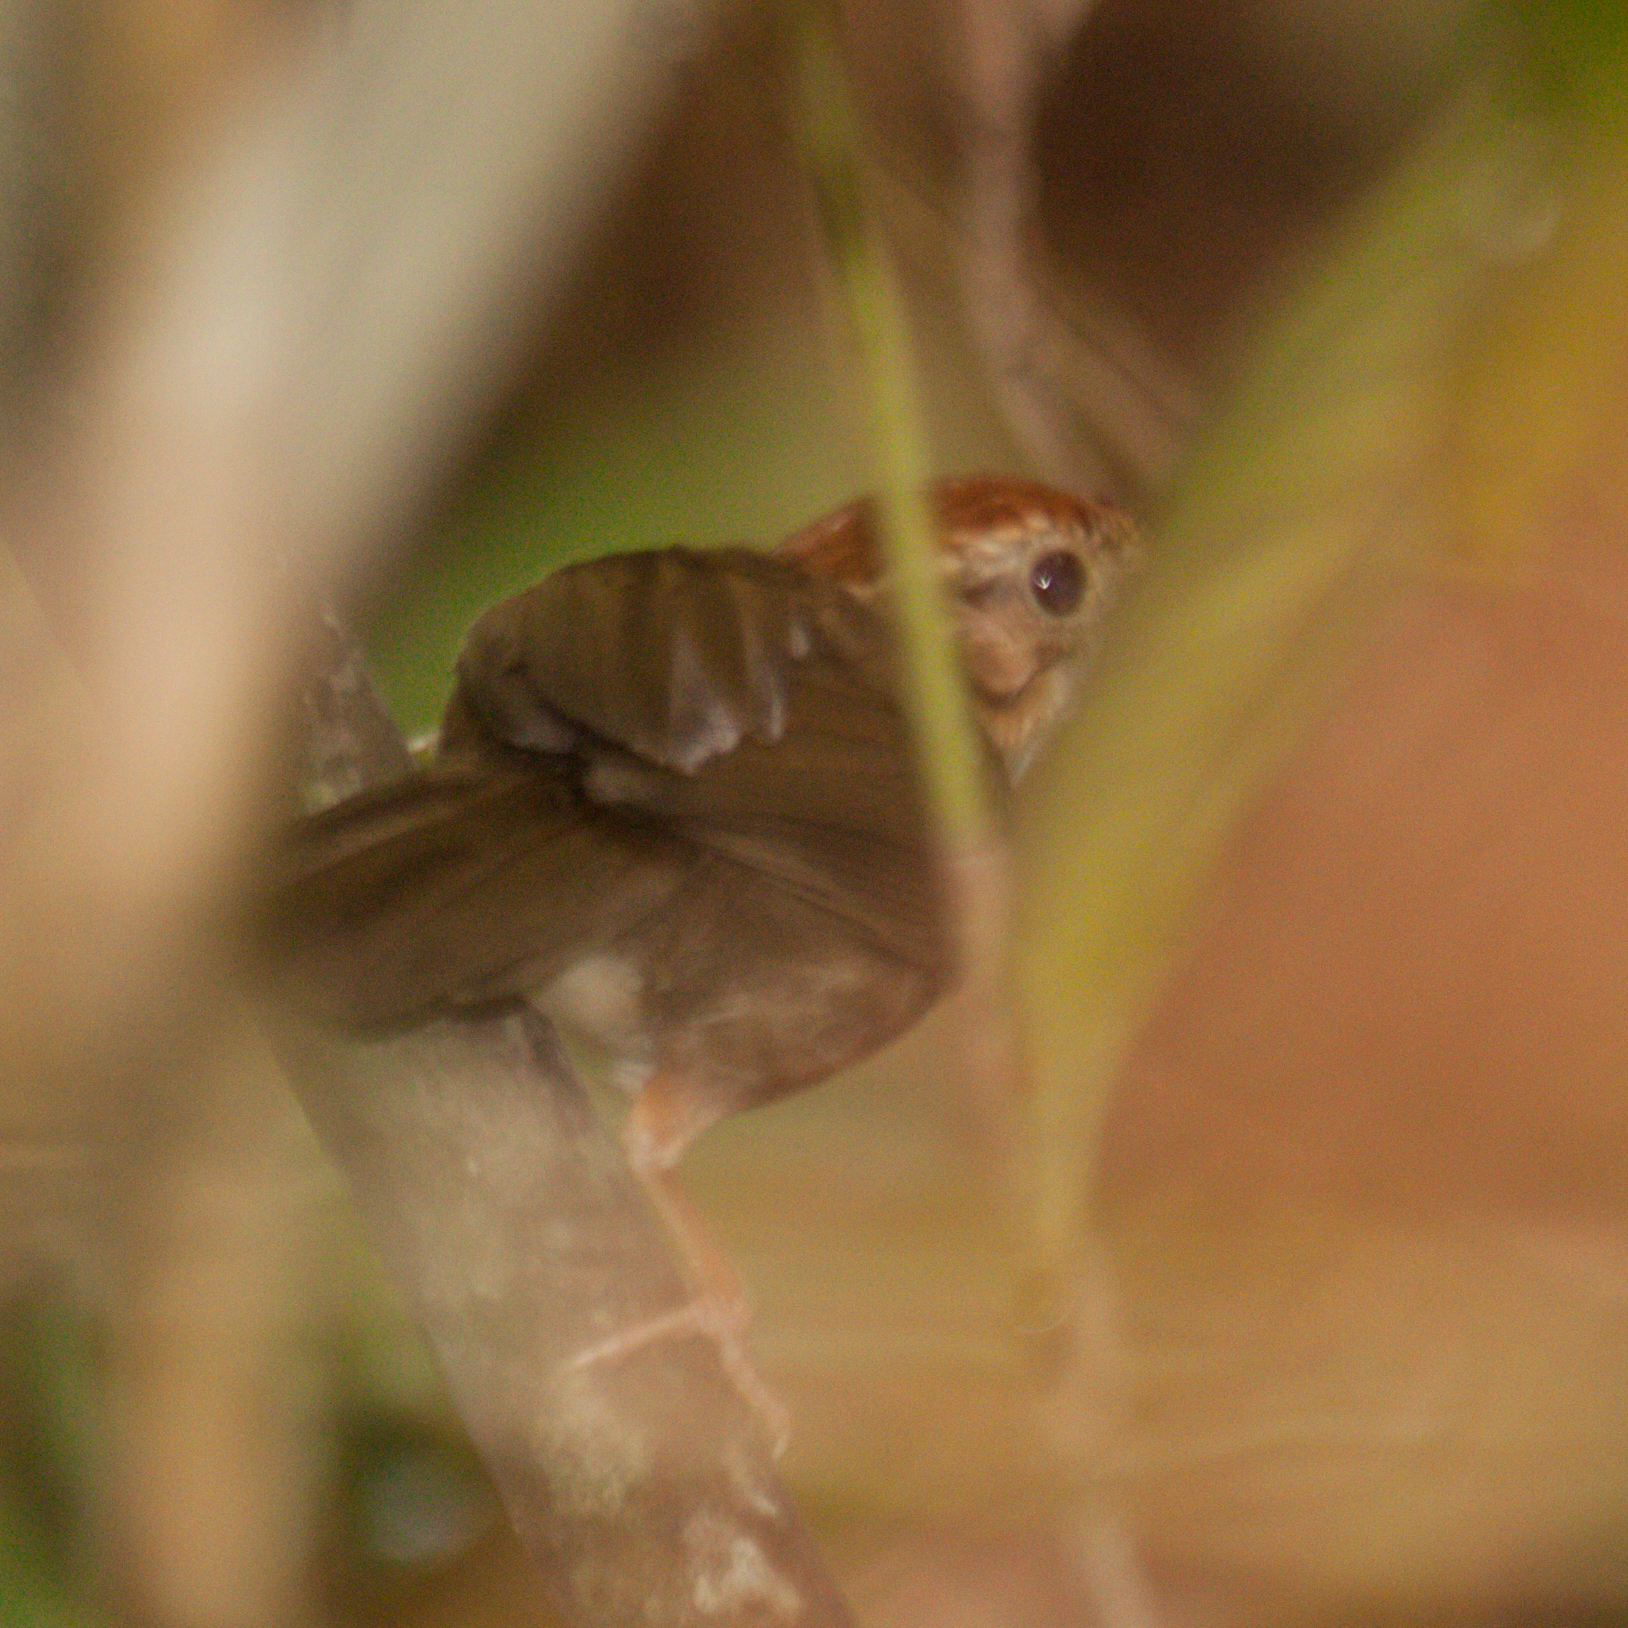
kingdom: Animalia
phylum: Chordata
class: Aves
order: Passeriformes
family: Pellorneidae
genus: Pellorneum
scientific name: Pellorneum ruficeps
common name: Puff-throated babbler
